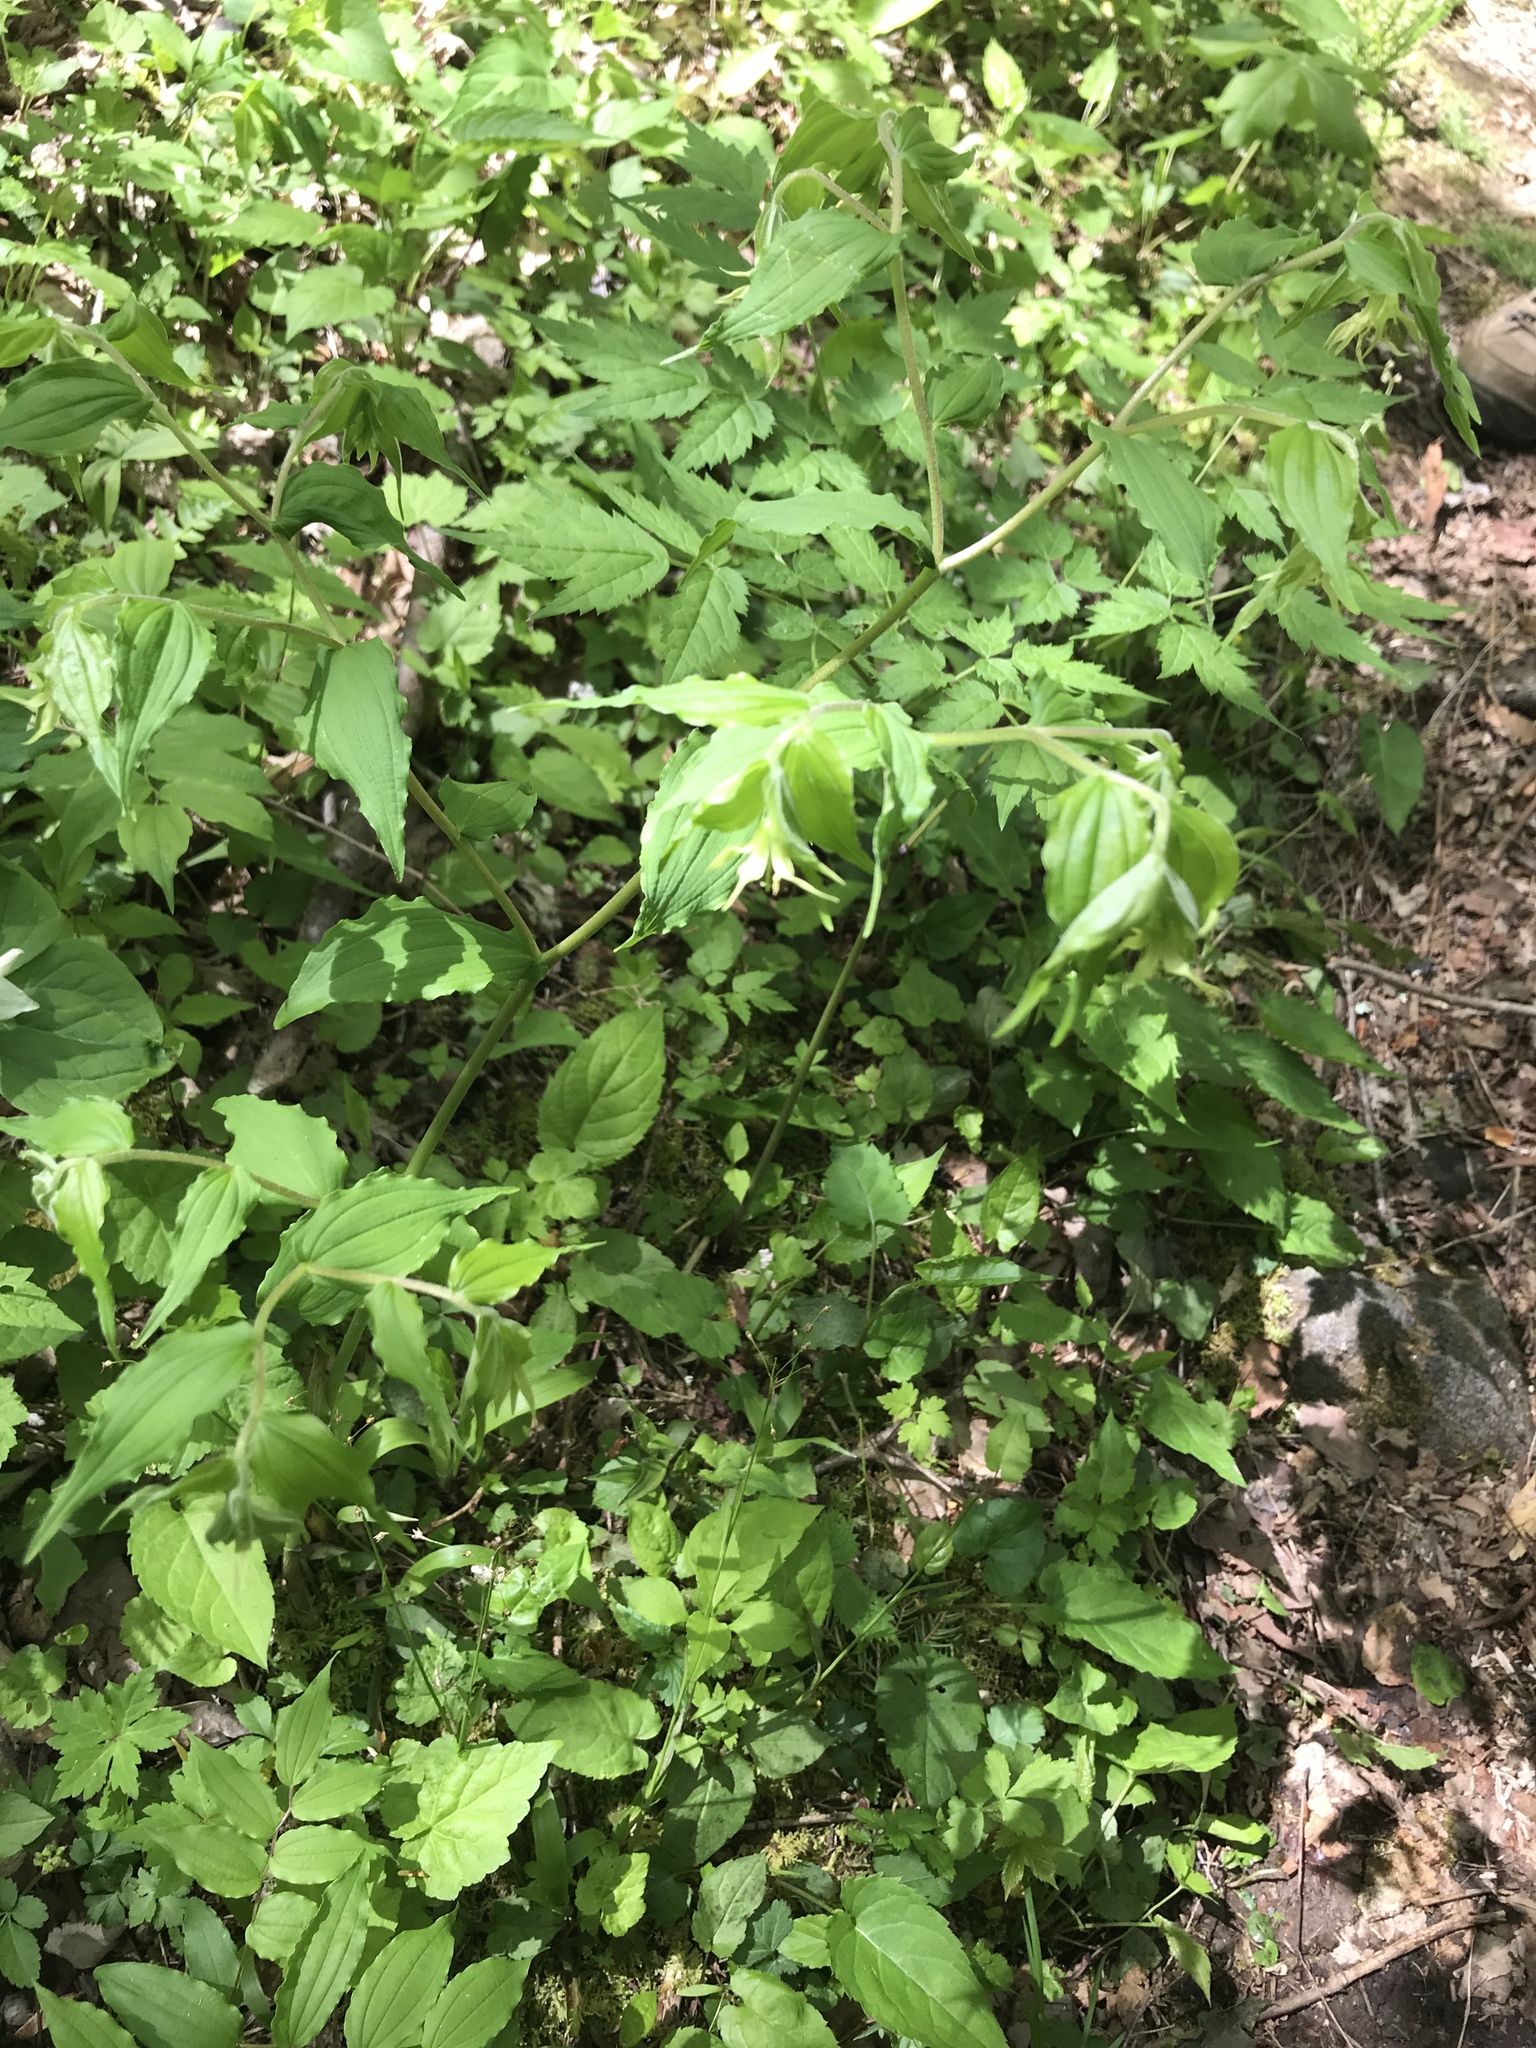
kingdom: Plantae
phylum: Tracheophyta
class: Liliopsida
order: Liliales
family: Liliaceae
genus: Prosartes
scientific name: Prosartes lanuginosa
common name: Hairy mandarin
